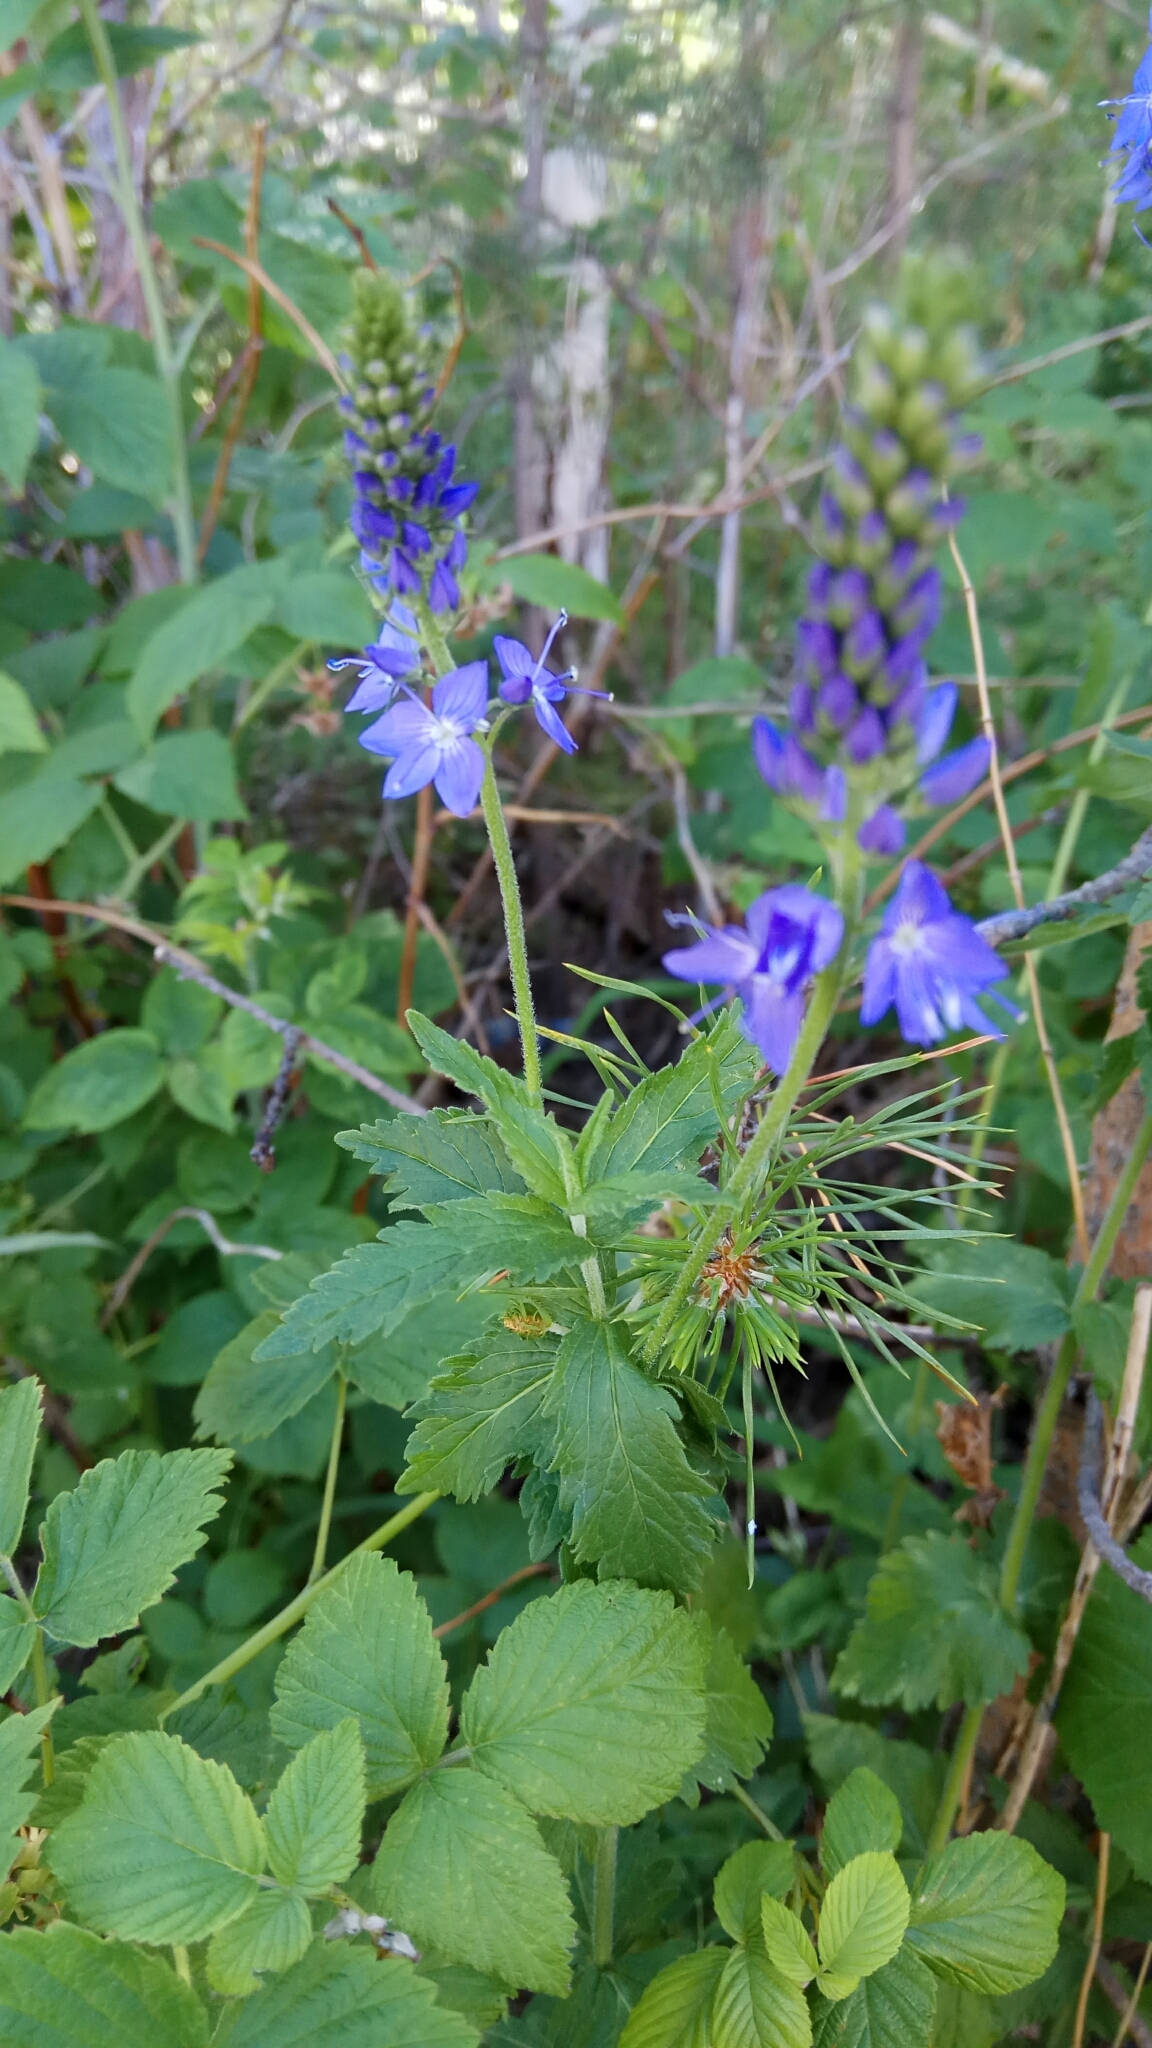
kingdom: Plantae
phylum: Tracheophyta
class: Magnoliopsida
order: Lamiales
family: Plantaginaceae
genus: Veronica
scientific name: Veronica teucrium
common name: Large speedwell
